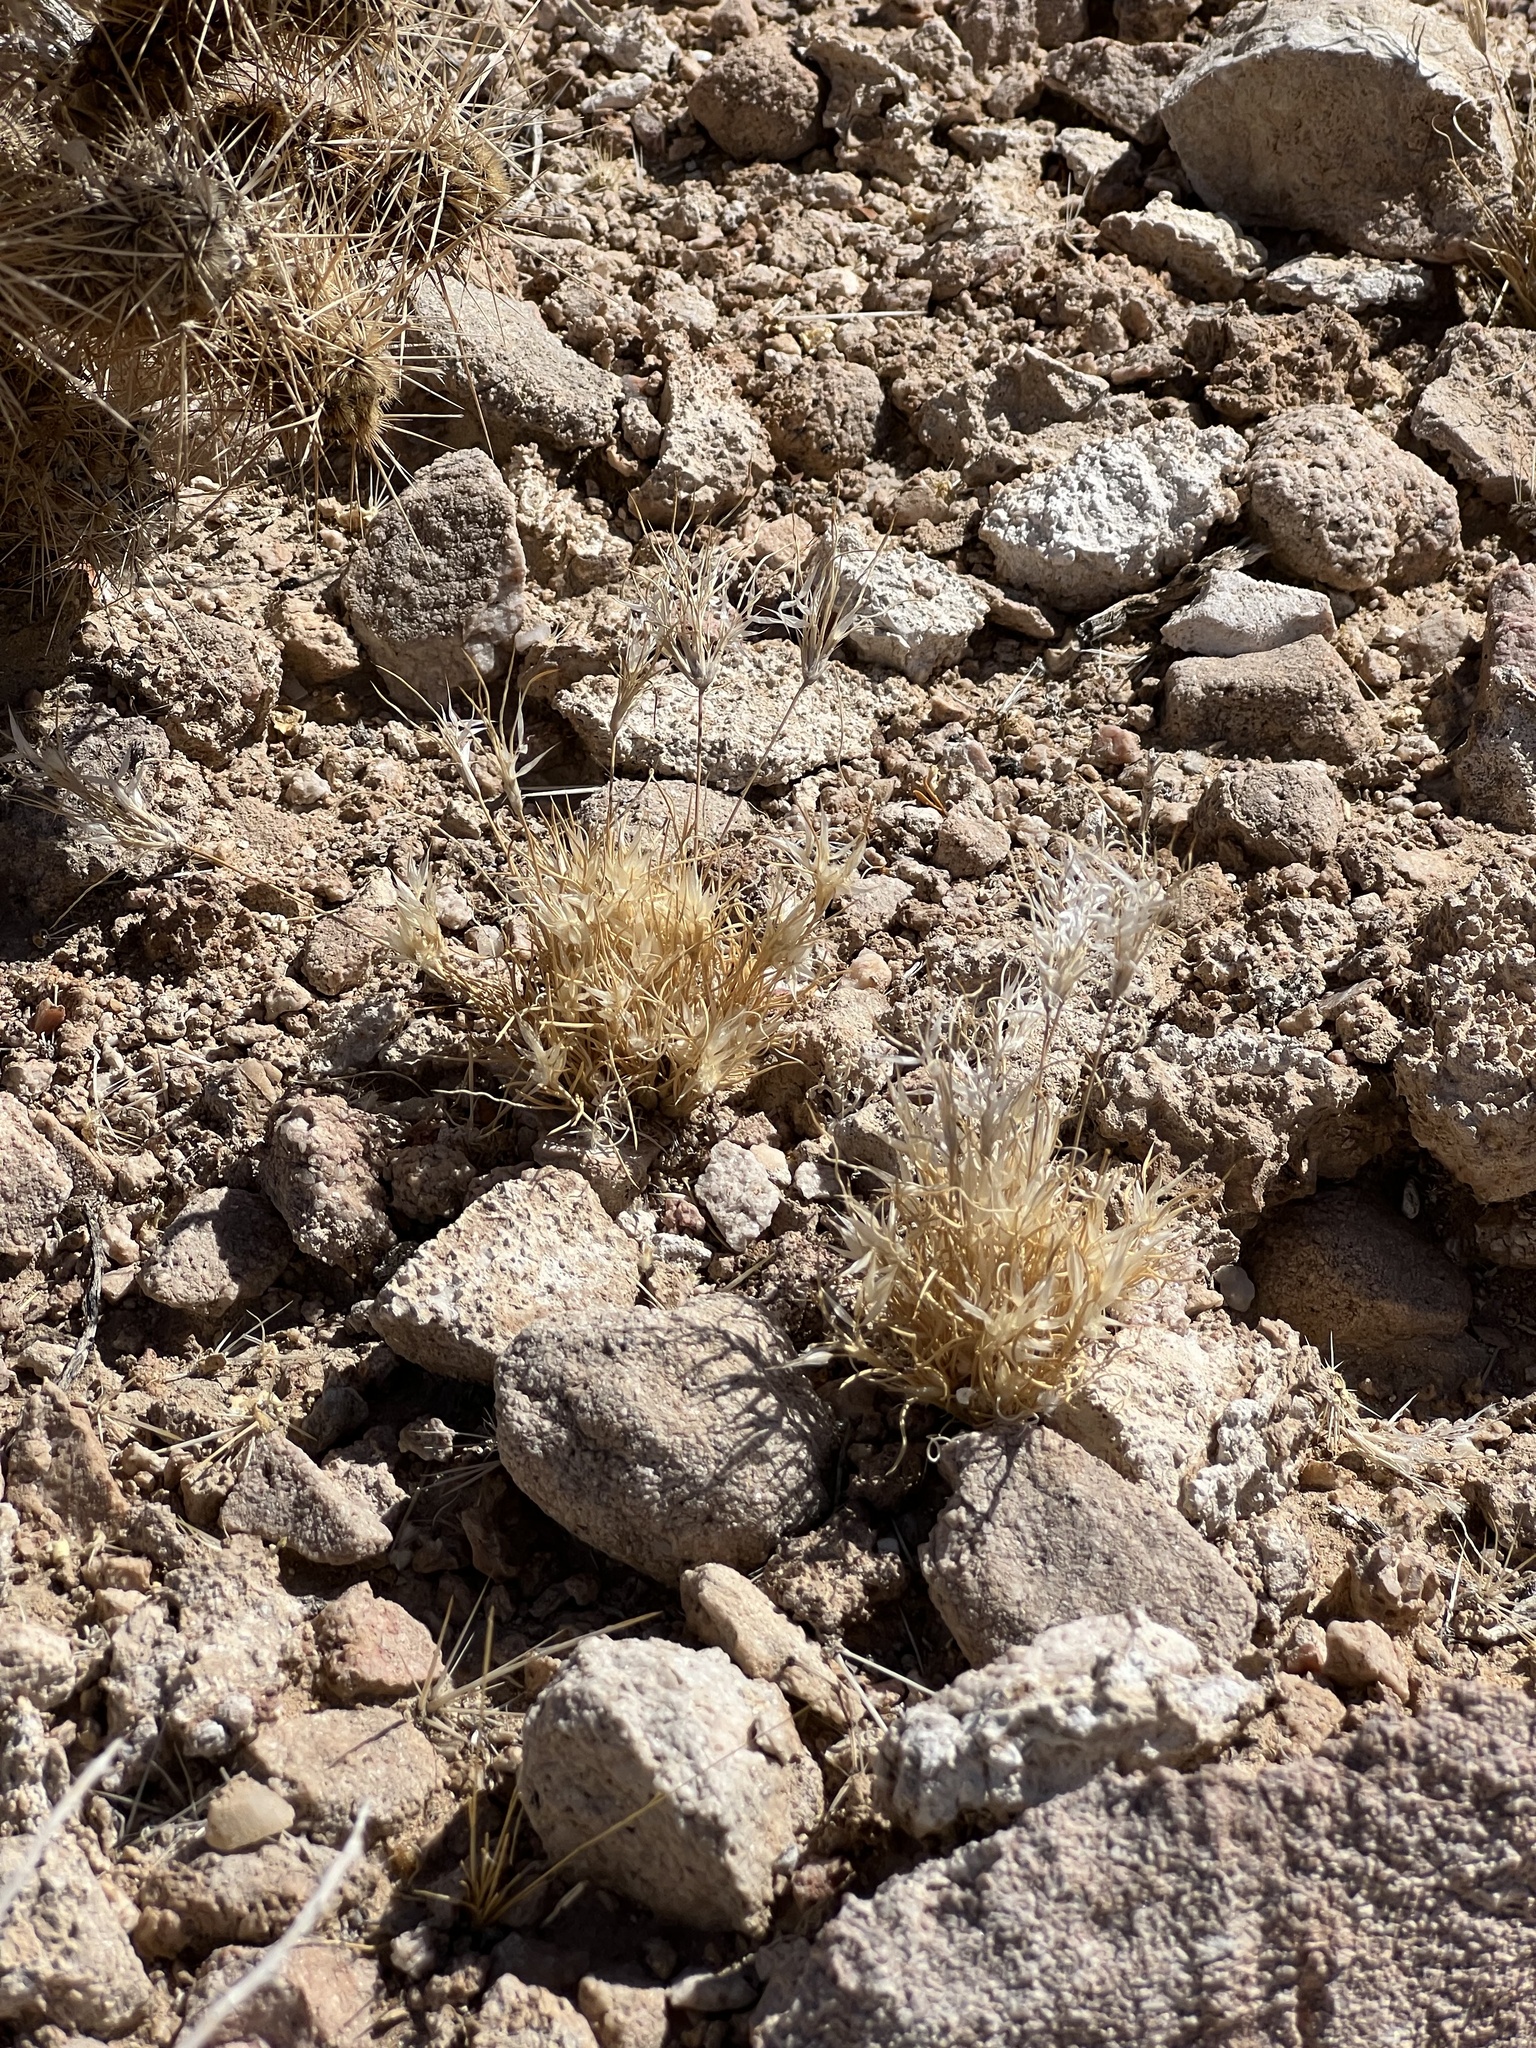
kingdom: Plantae
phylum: Tracheophyta
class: Liliopsida
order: Poales
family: Poaceae
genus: Dasyochloa
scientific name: Dasyochloa pulchella
